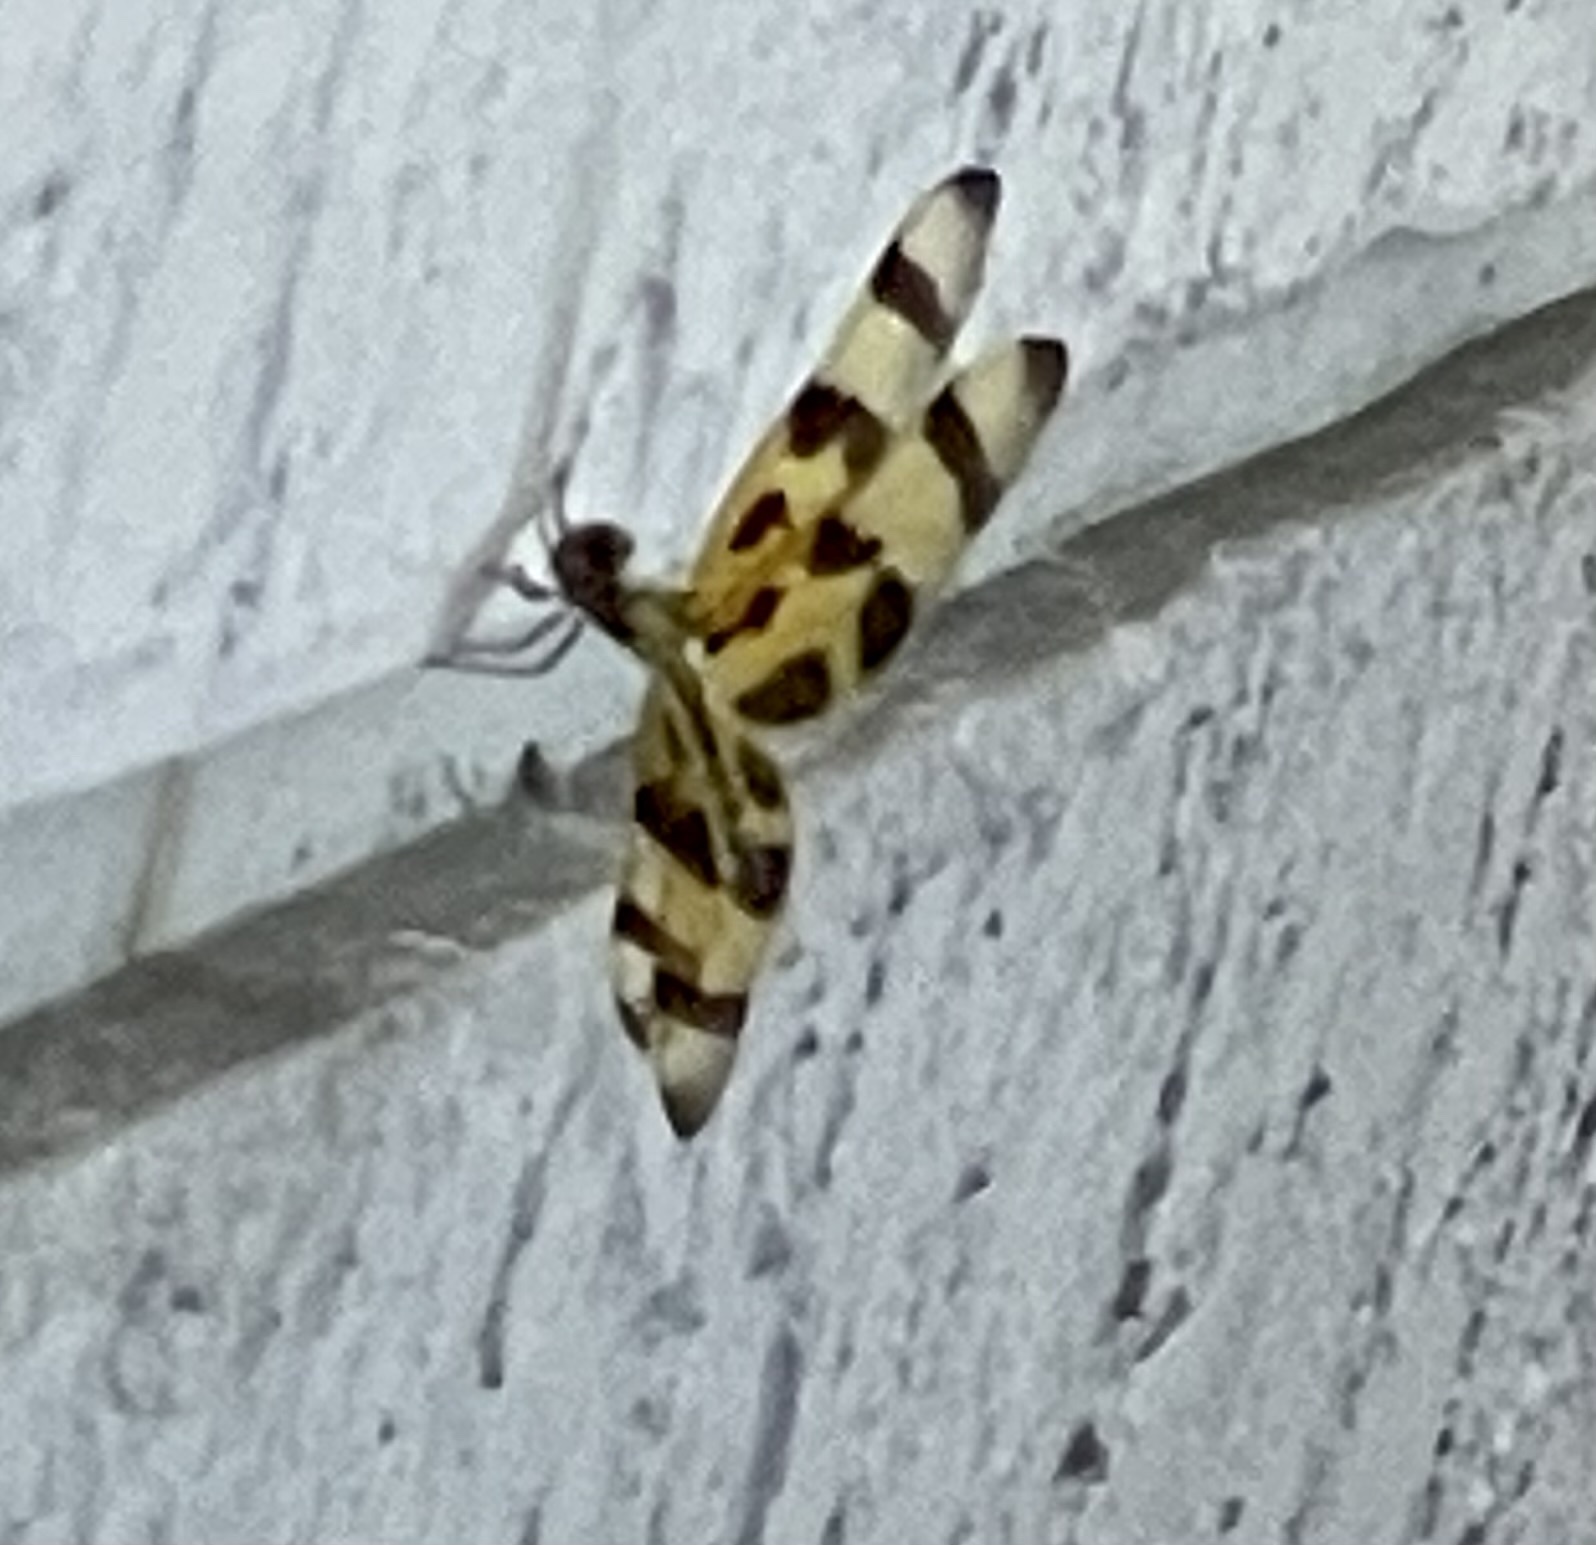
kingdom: Animalia
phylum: Arthropoda
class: Insecta
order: Odonata
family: Libellulidae
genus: Celithemis
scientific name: Celithemis eponina
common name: Halloween pennant
